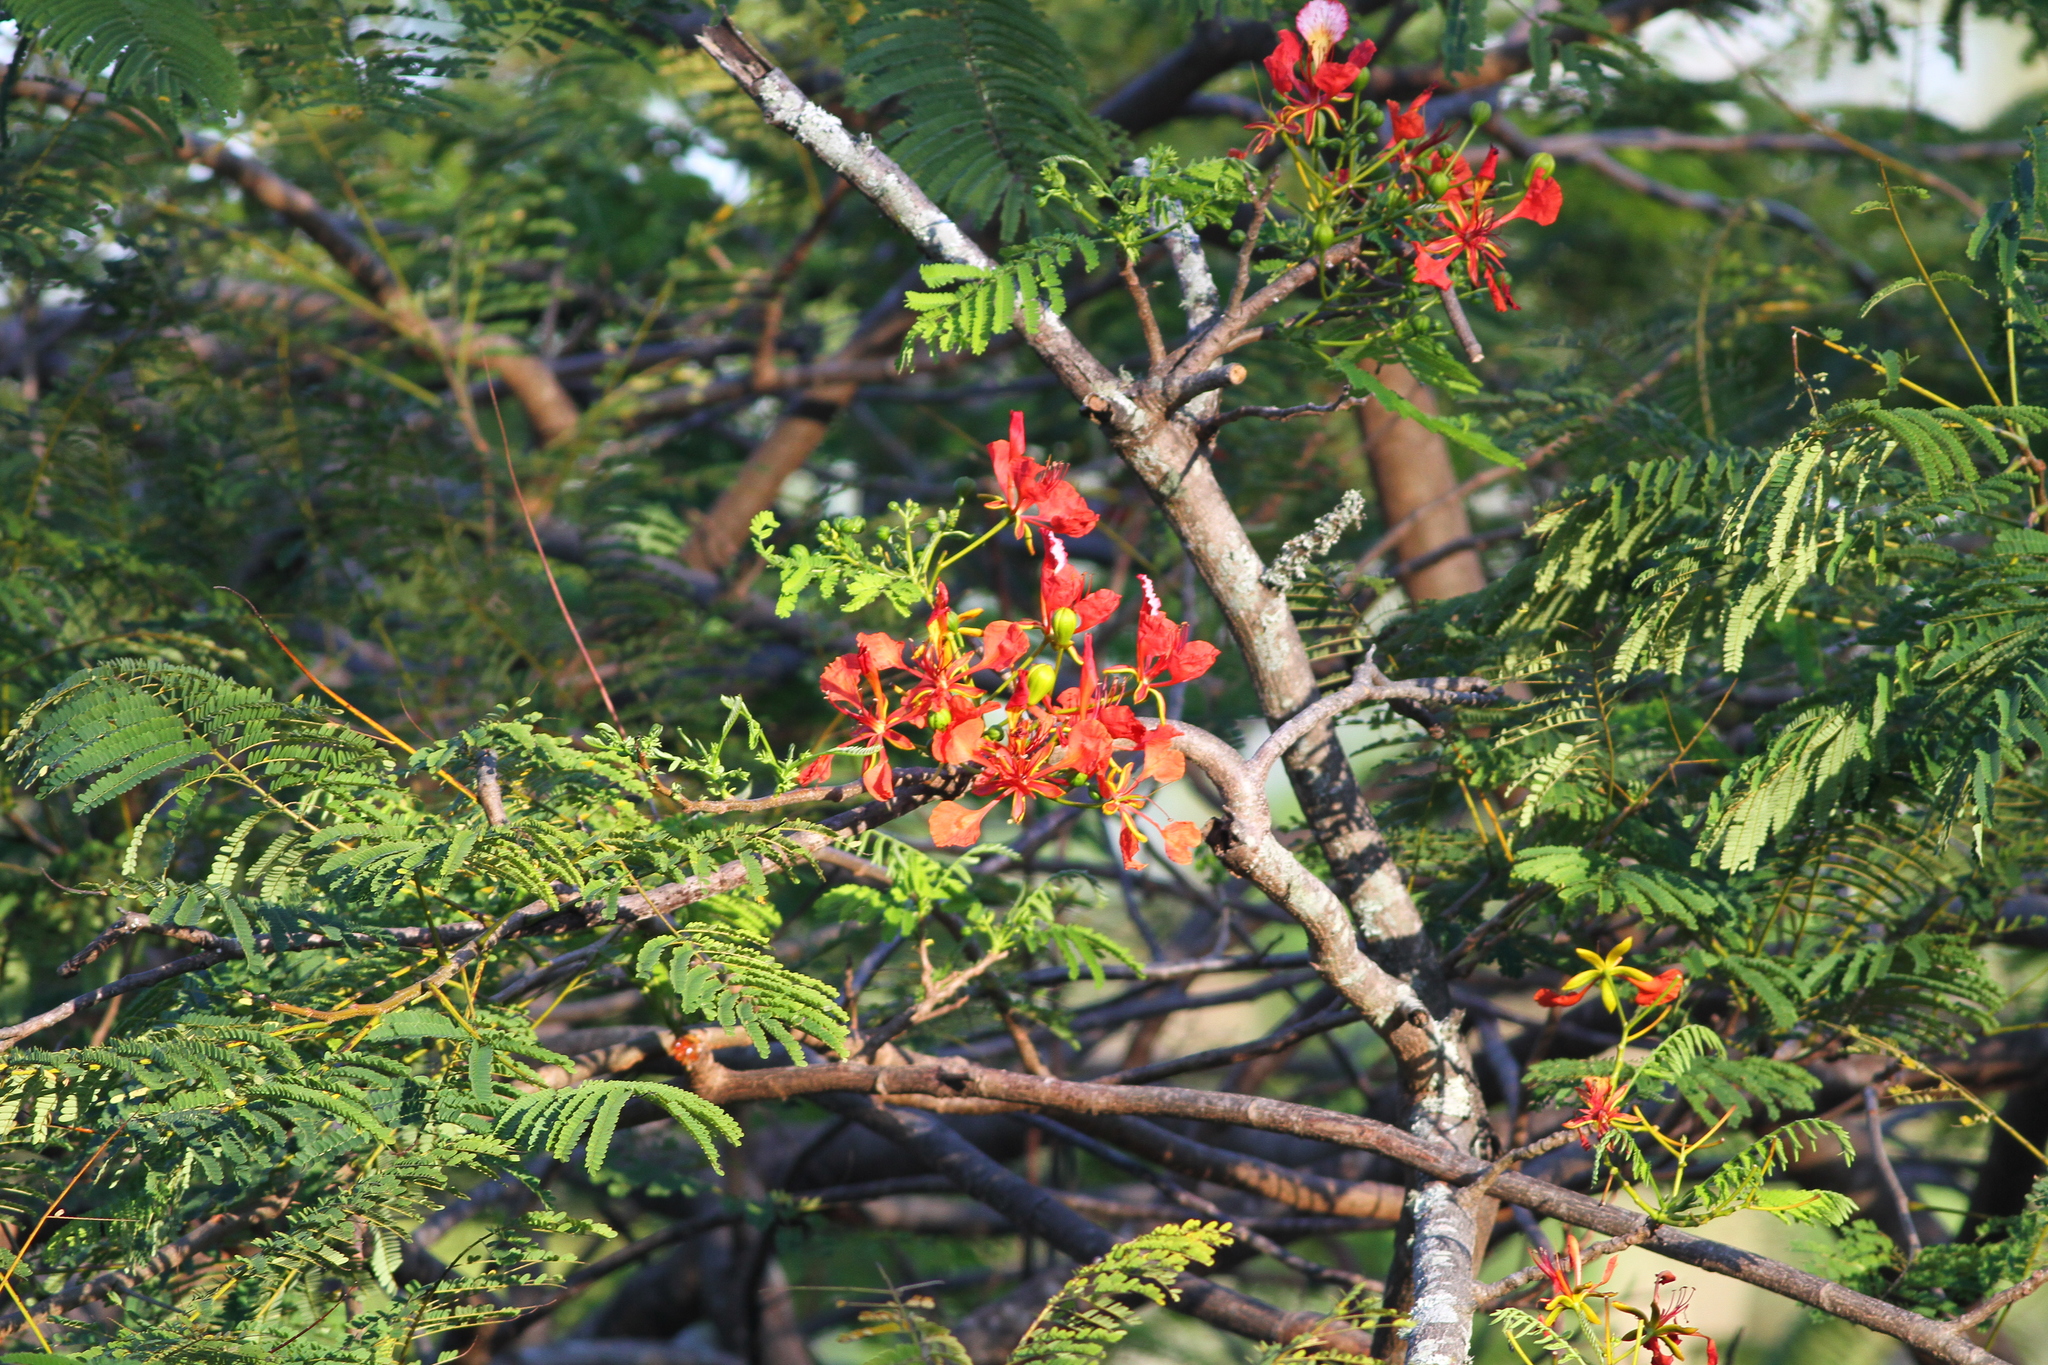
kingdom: Plantae
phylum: Tracheophyta
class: Magnoliopsida
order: Fabales
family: Fabaceae
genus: Delonix
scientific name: Delonix regia
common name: Royal poinciana
